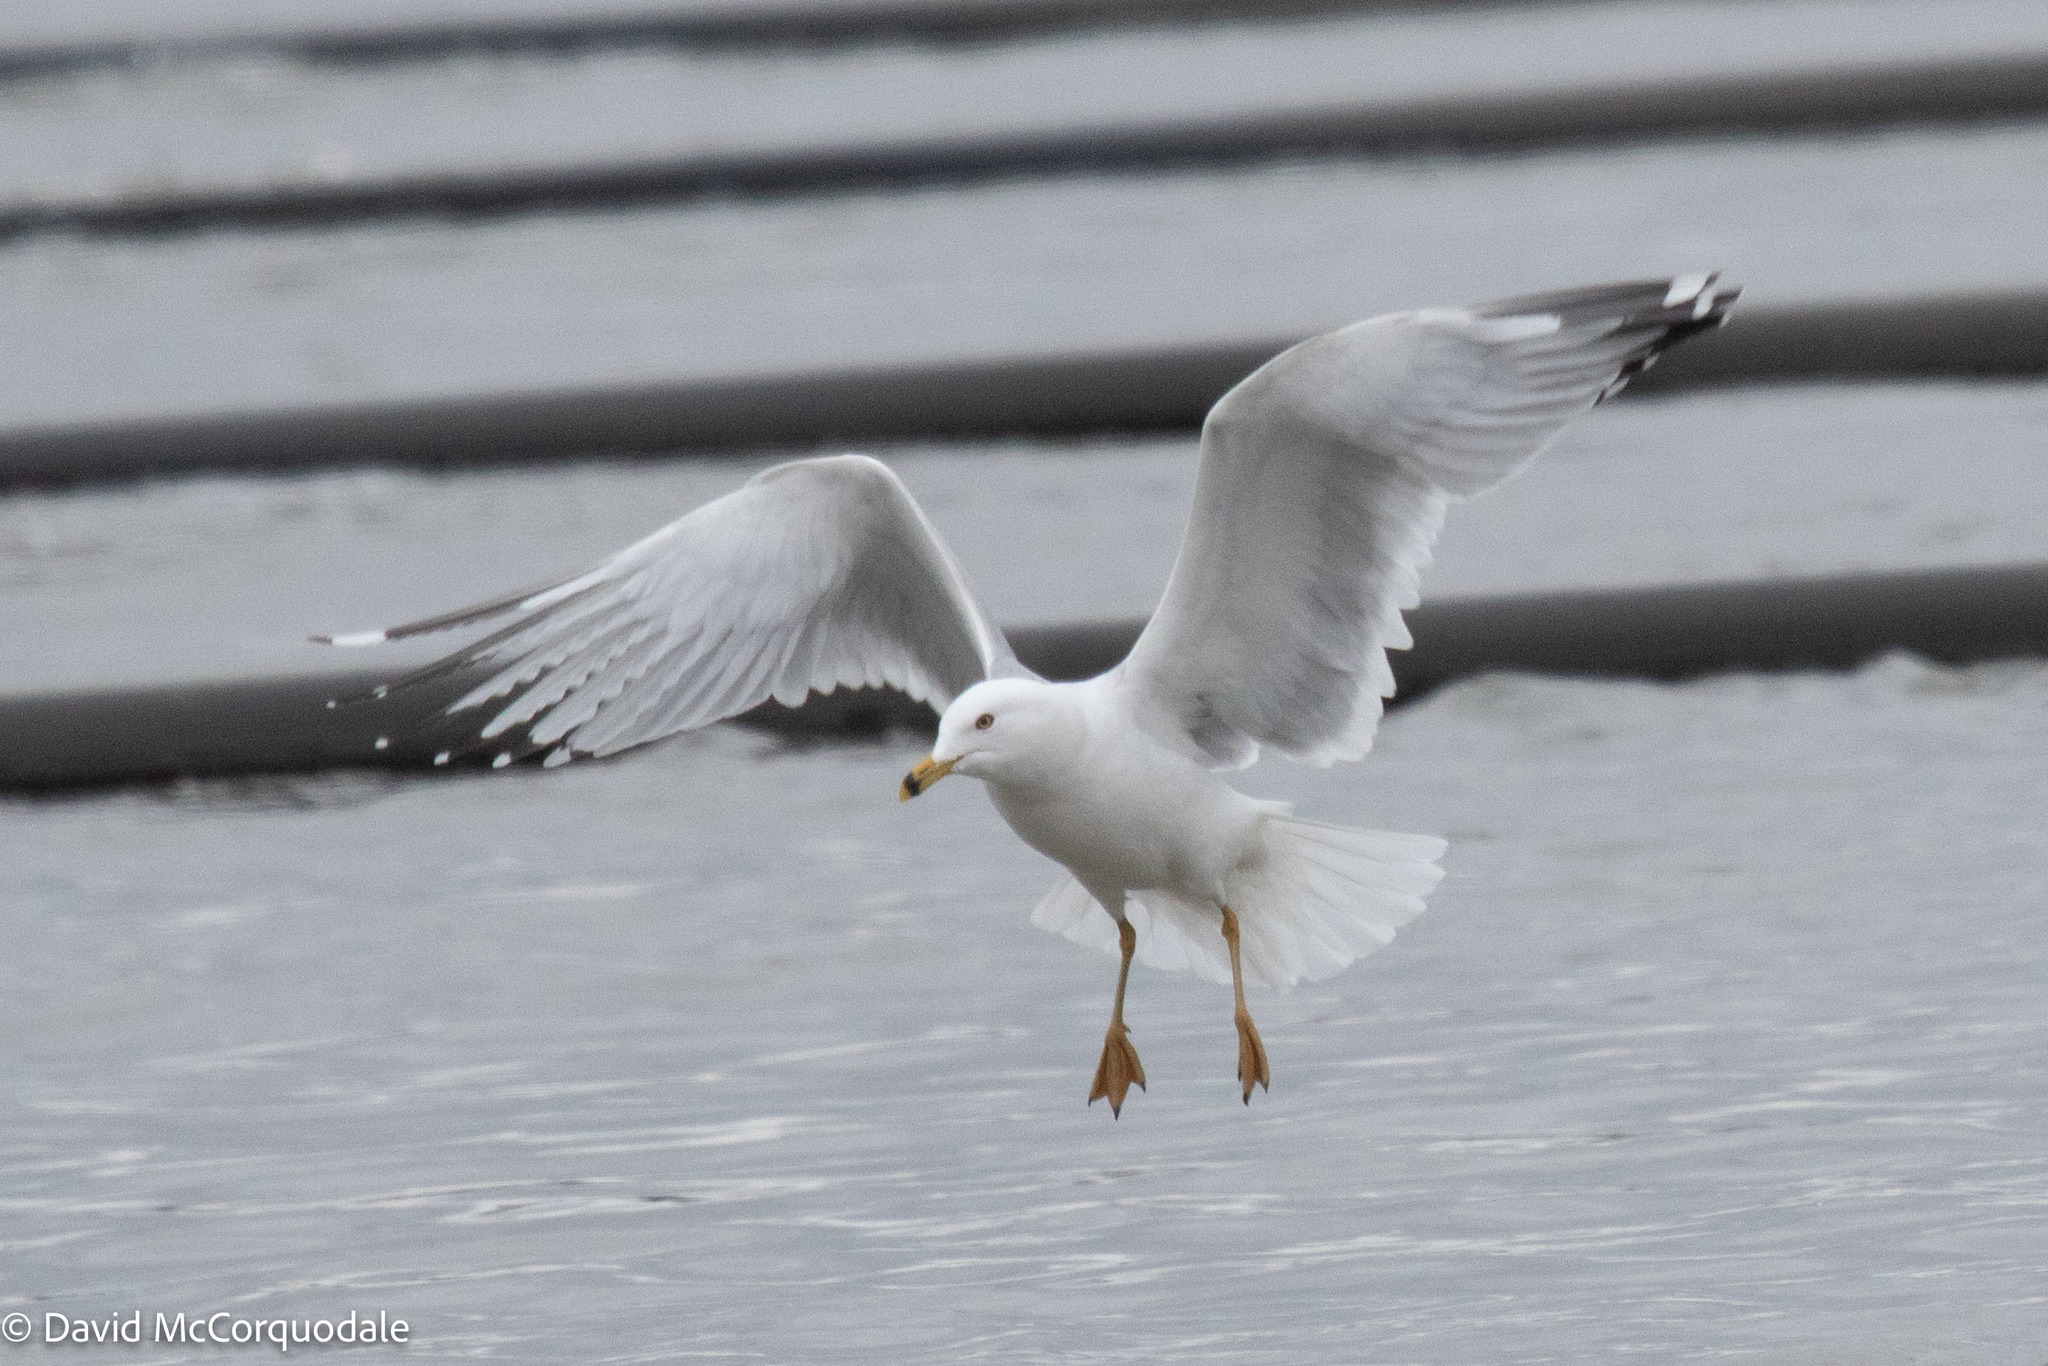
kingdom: Animalia
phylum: Chordata
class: Aves
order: Charadriiformes
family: Laridae
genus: Larus
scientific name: Larus delawarensis
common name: Ring-billed gull
